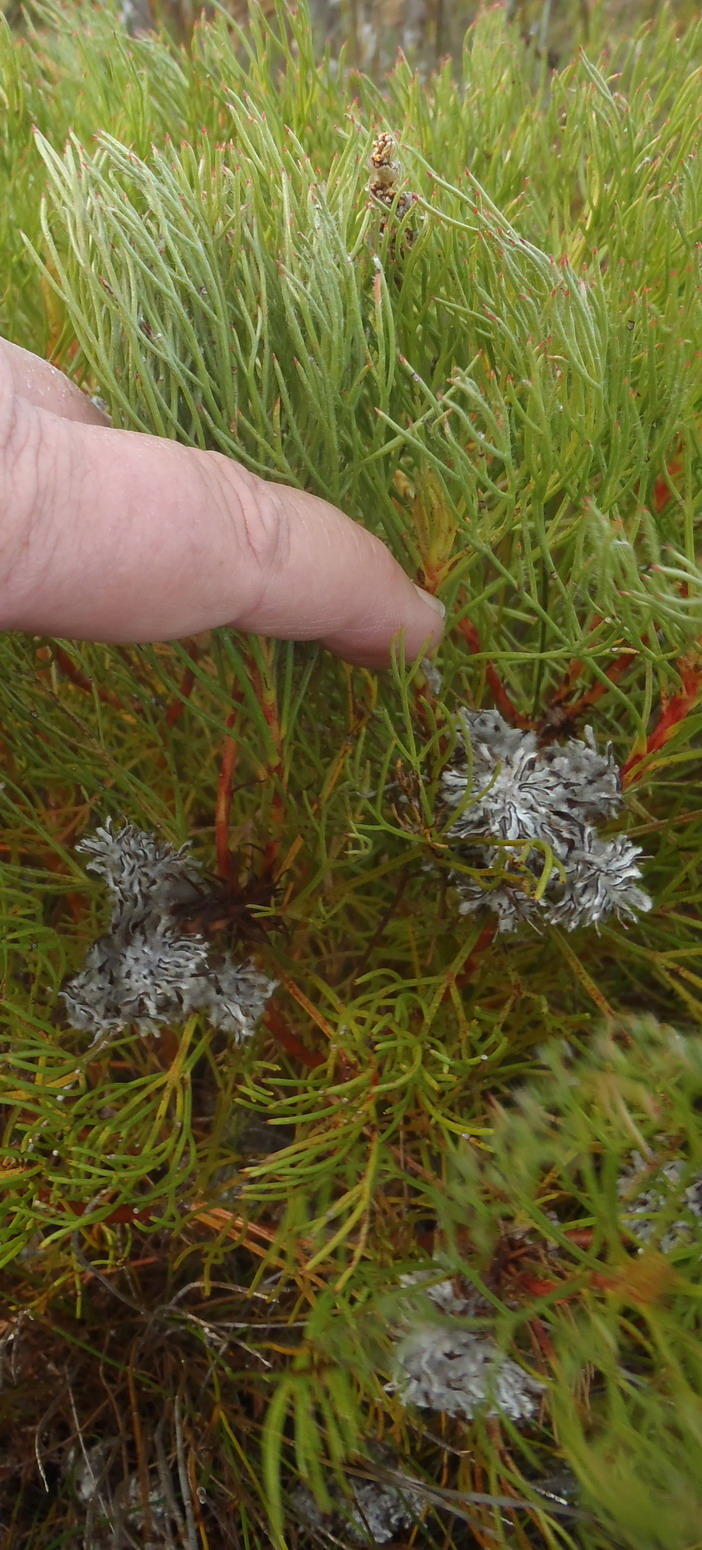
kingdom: Plantae
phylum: Tracheophyta
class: Magnoliopsida
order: Proteales
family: Proteaceae
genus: Serruria
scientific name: Serruria glomerata
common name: Cluster spiderhead
